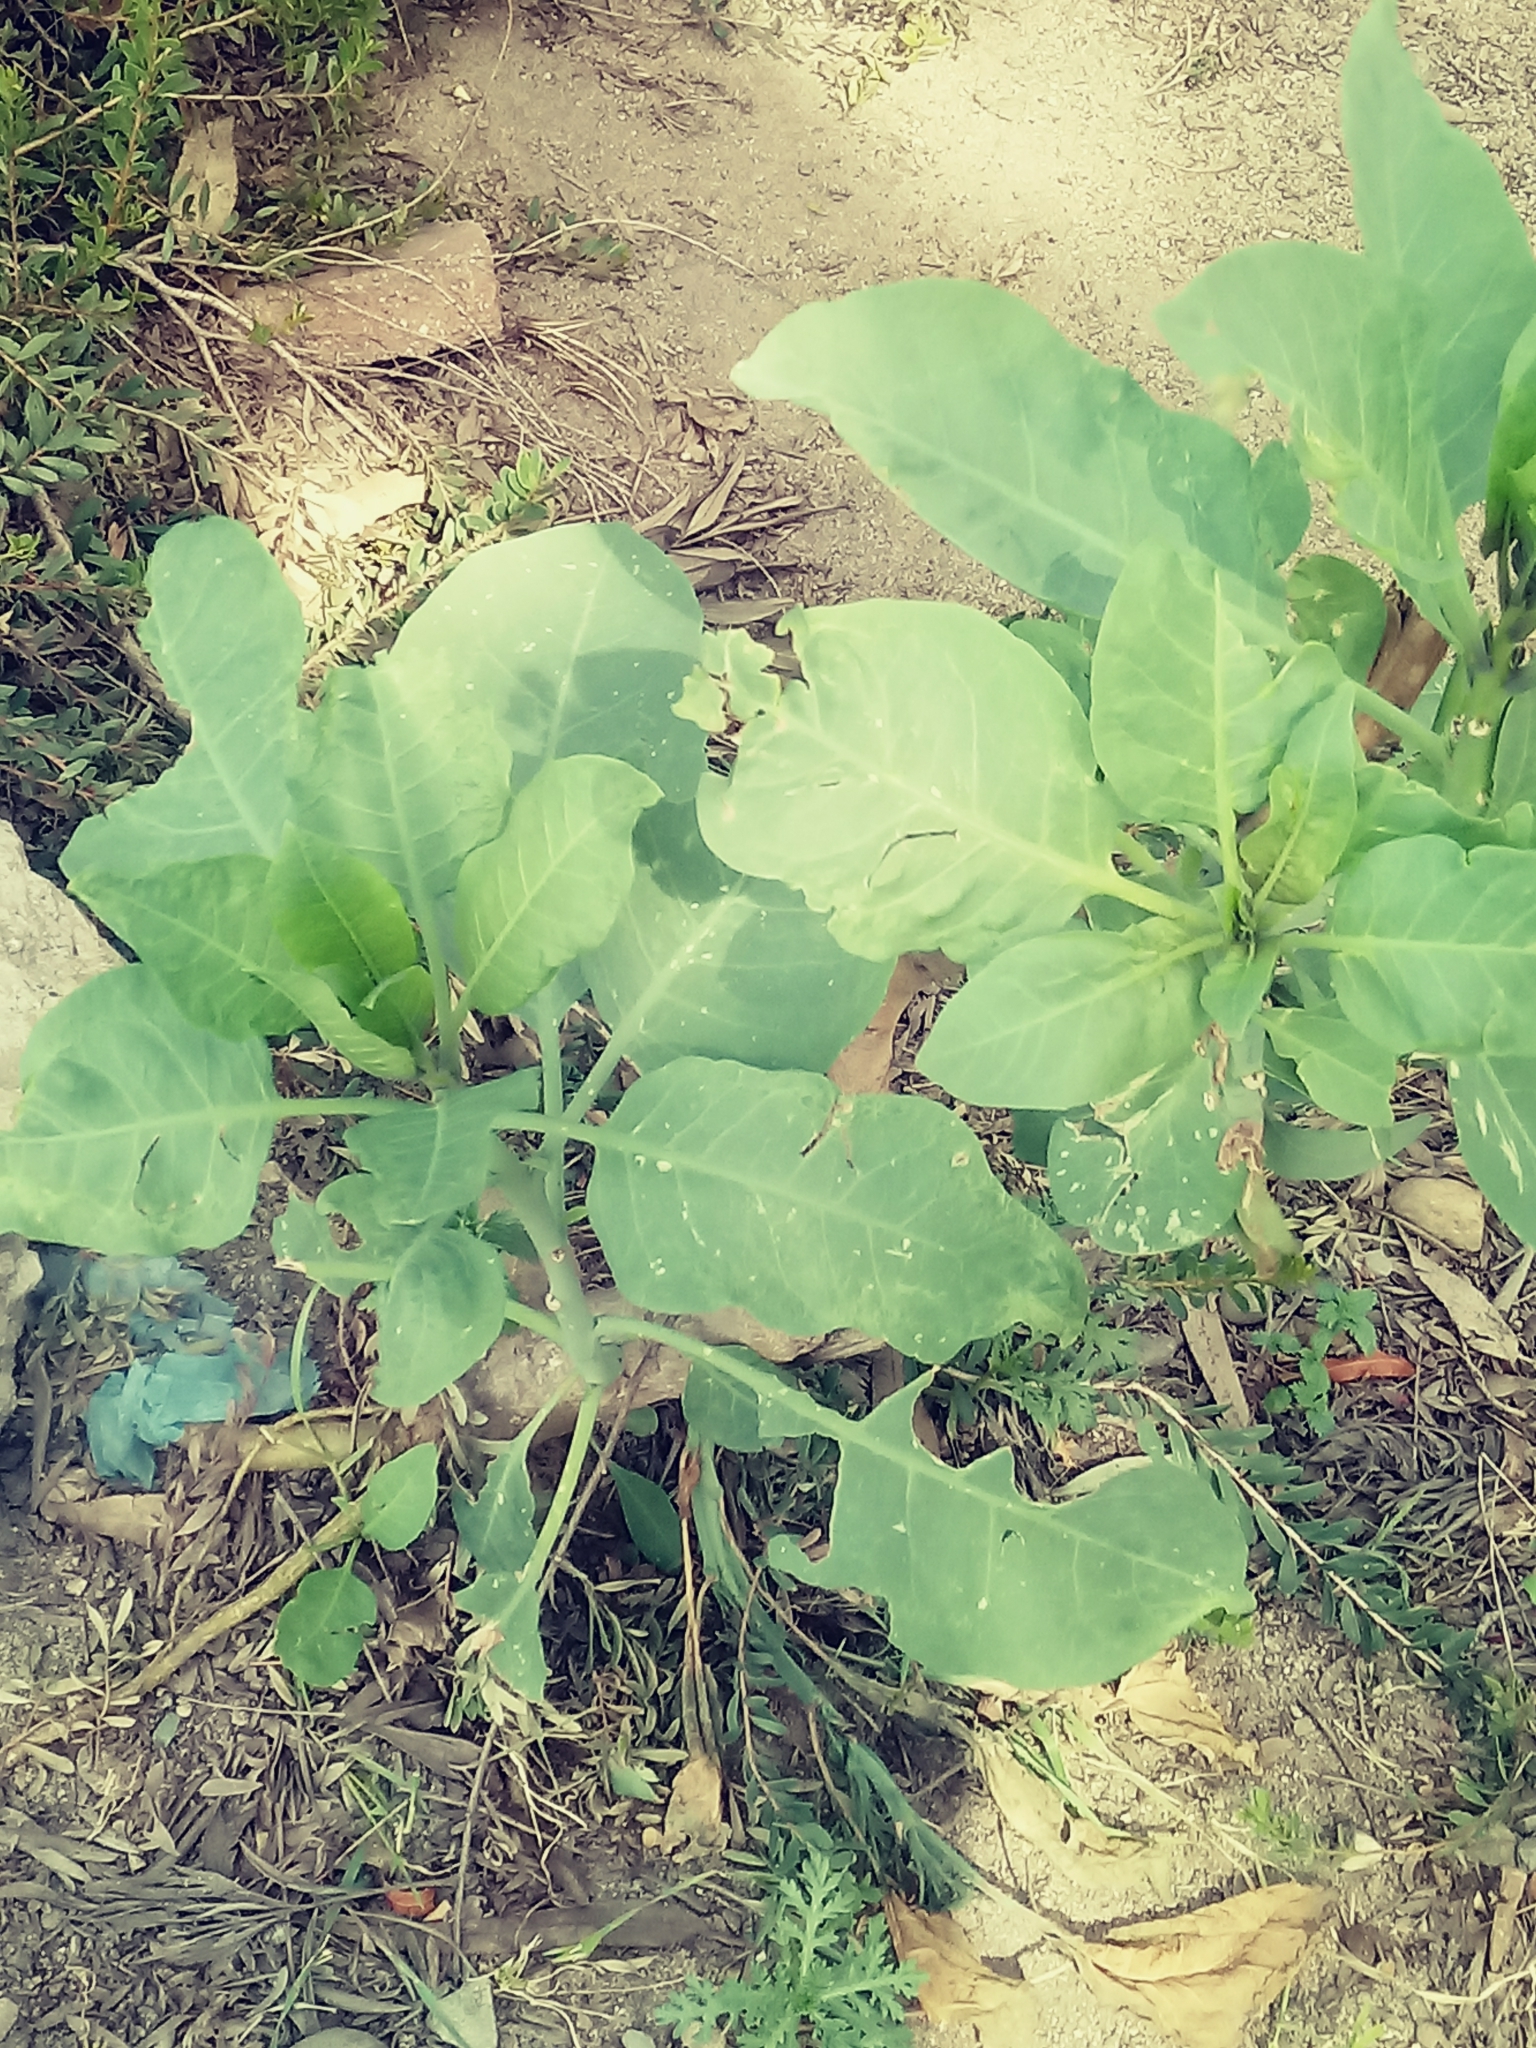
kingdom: Plantae
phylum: Tracheophyta
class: Magnoliopsida
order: Solanales
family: Solanaceae
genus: Nicotiana
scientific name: Nicotiana glauca
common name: Tree tobacco
